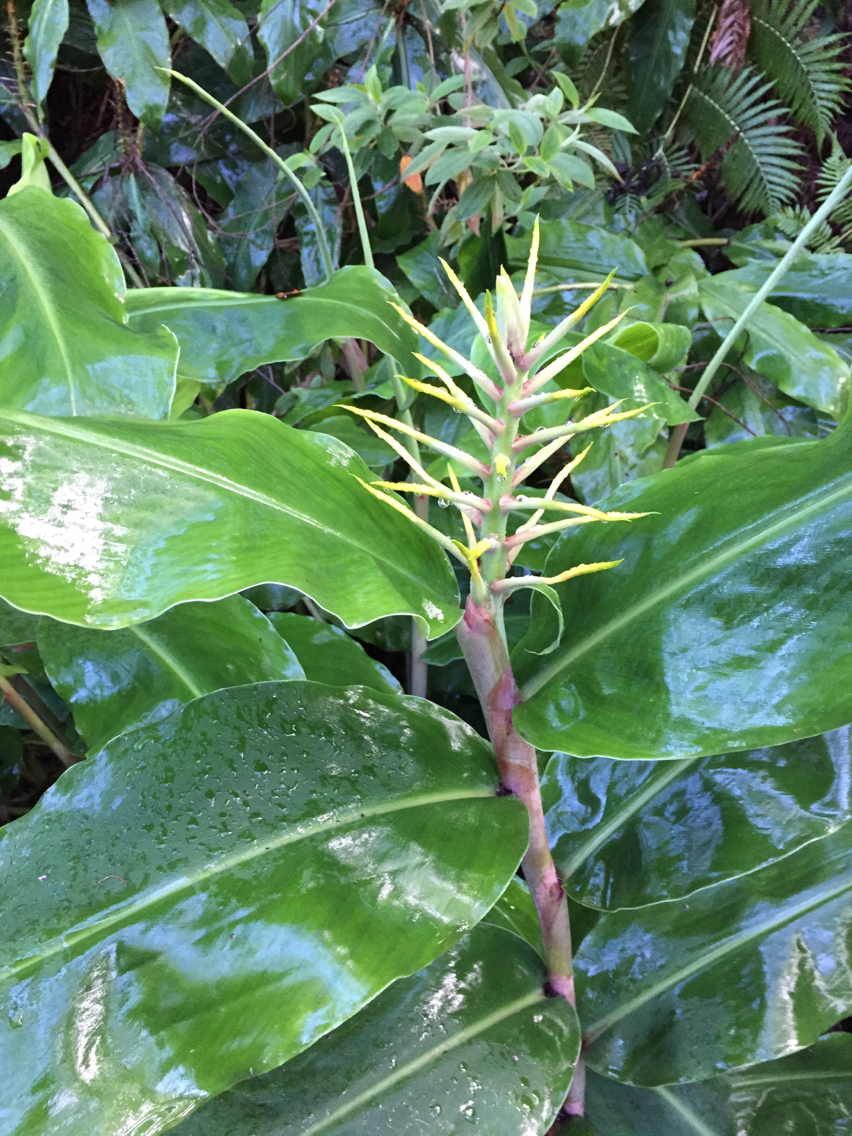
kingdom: Plantae
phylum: Tracheophyta
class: Liliopsida
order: Zingiberales
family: Zingiberaceae
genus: Hedychium
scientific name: Hedychium gardnerianum
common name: Himalayan ginger
